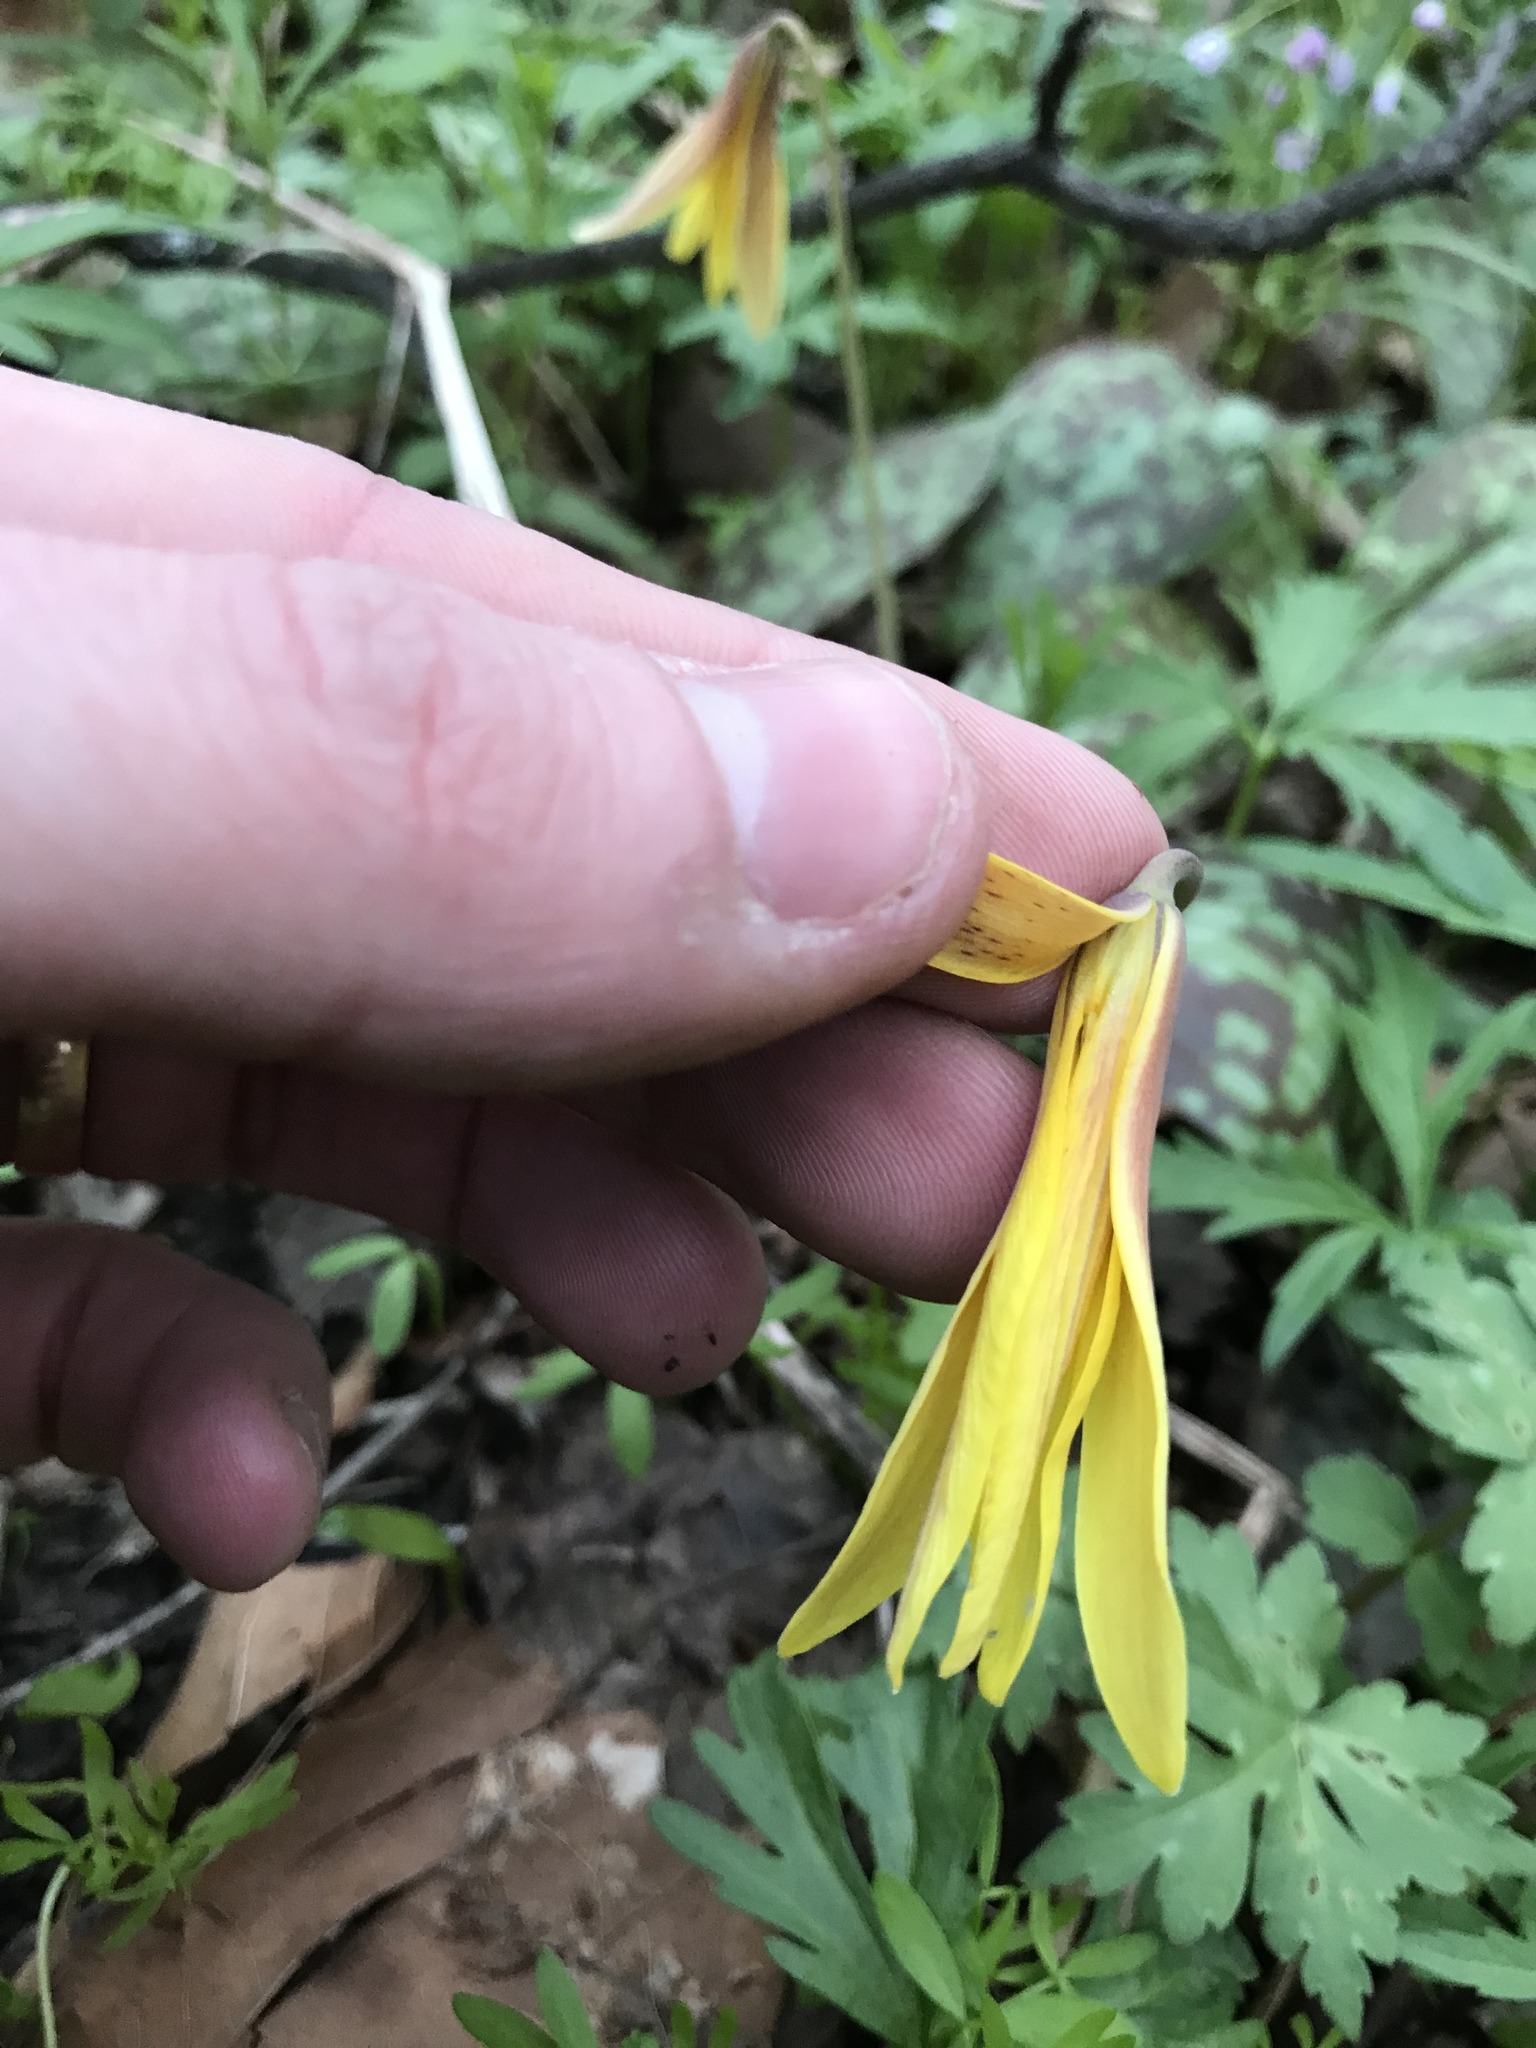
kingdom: Plantae
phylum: Tracheophyta
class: Liliopsida
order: Liliales
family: Liliaceae
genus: Erythronium
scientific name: Erythronium americanum
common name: Yellow adder's-tongue
